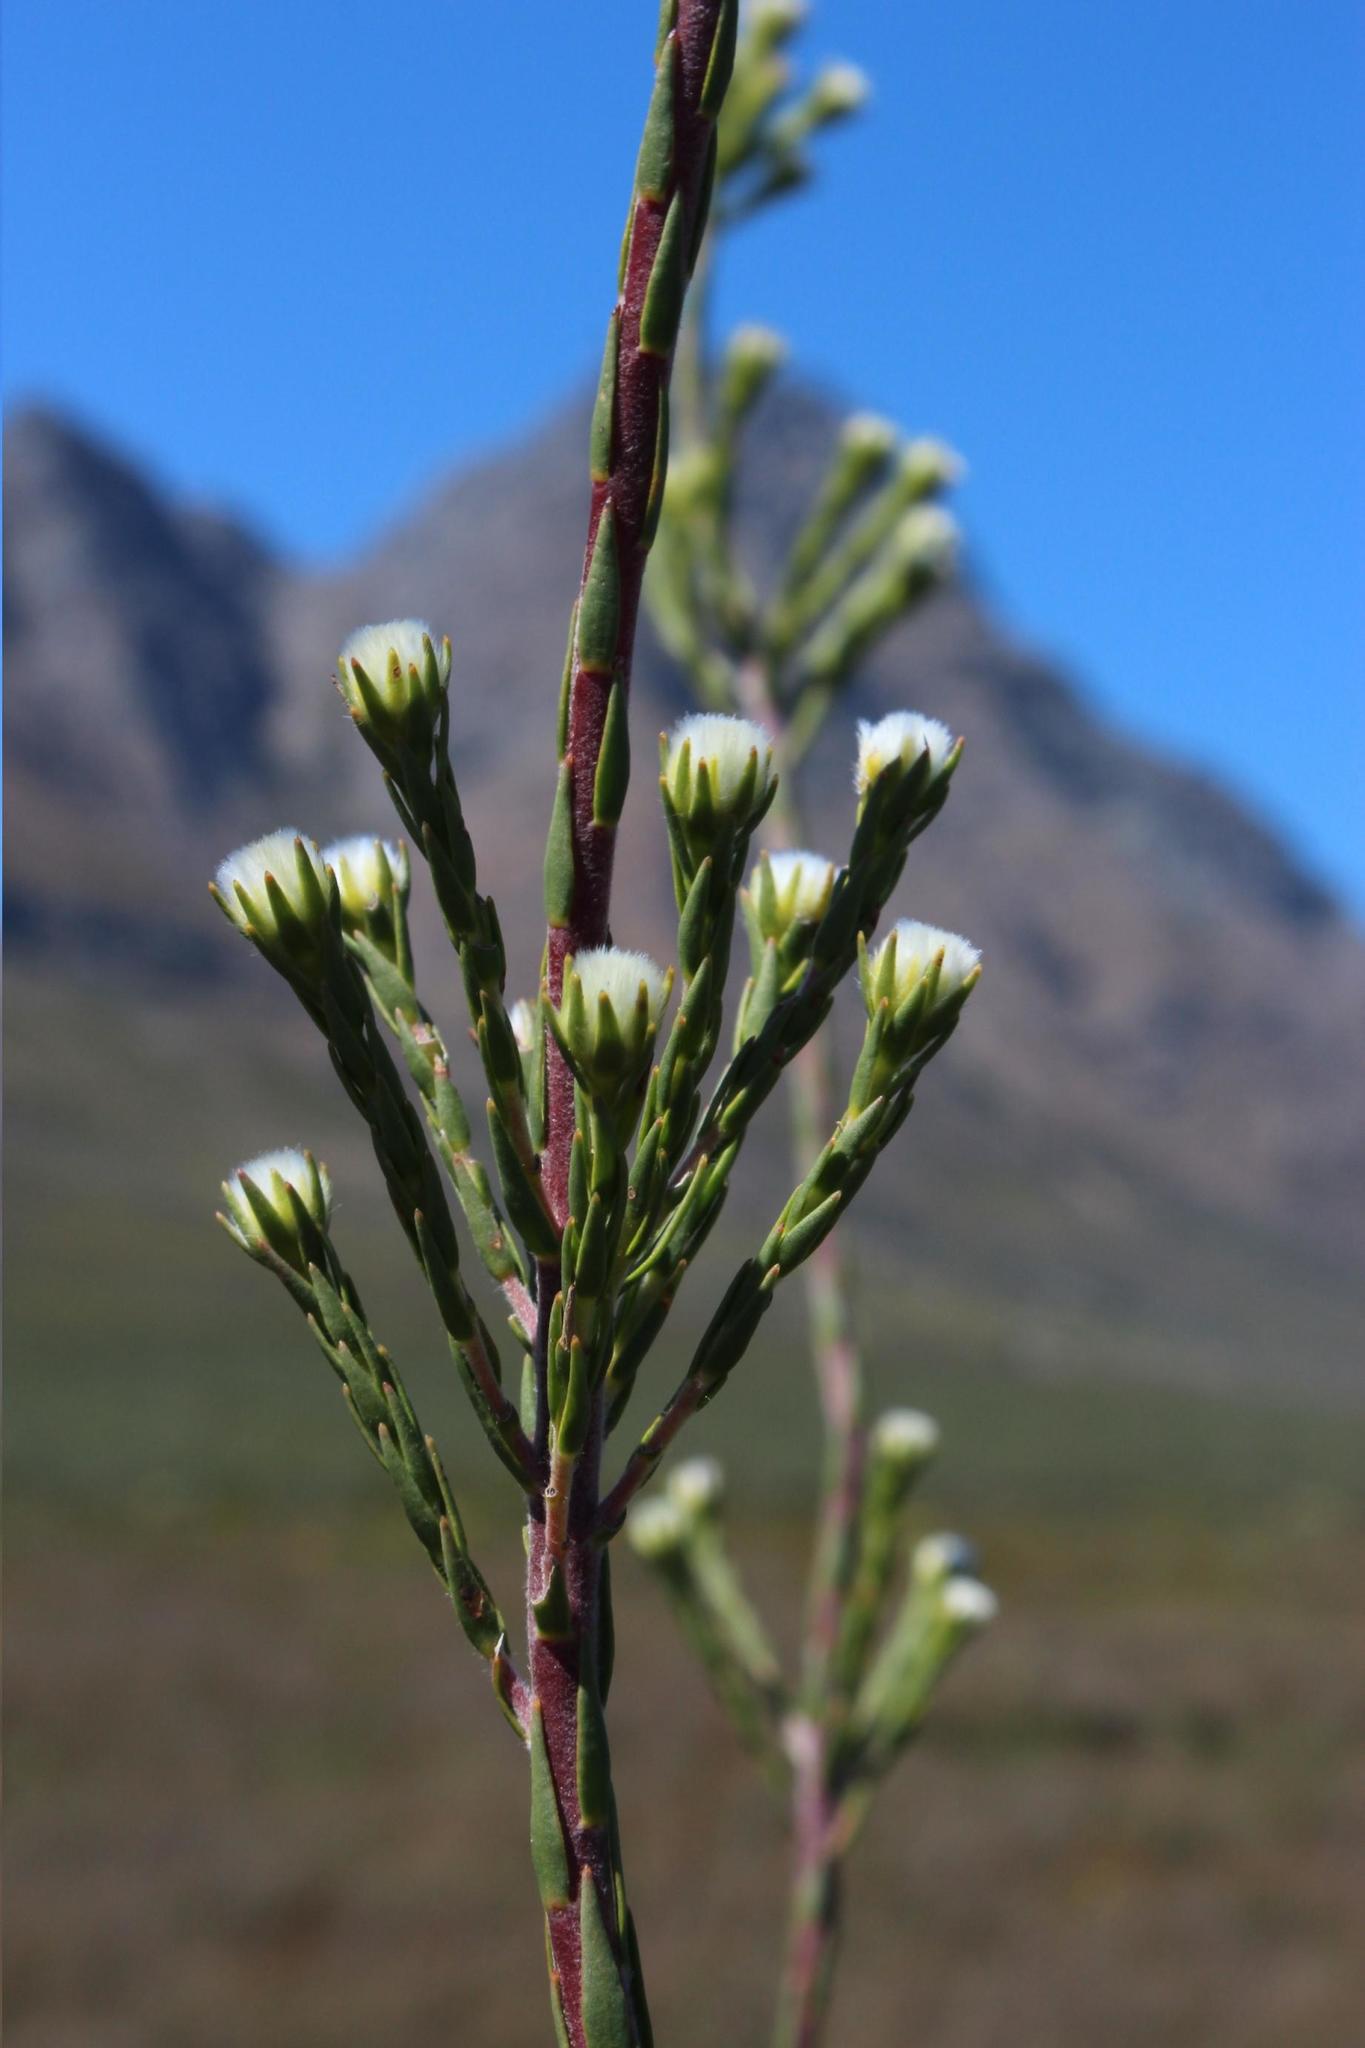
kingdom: Plantae
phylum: Tracheophyta
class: Magnoliopsida
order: Proteales
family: Proteaceae
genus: Leucadendron
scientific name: Leucadendron corymbosum
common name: Swartveld conebush
